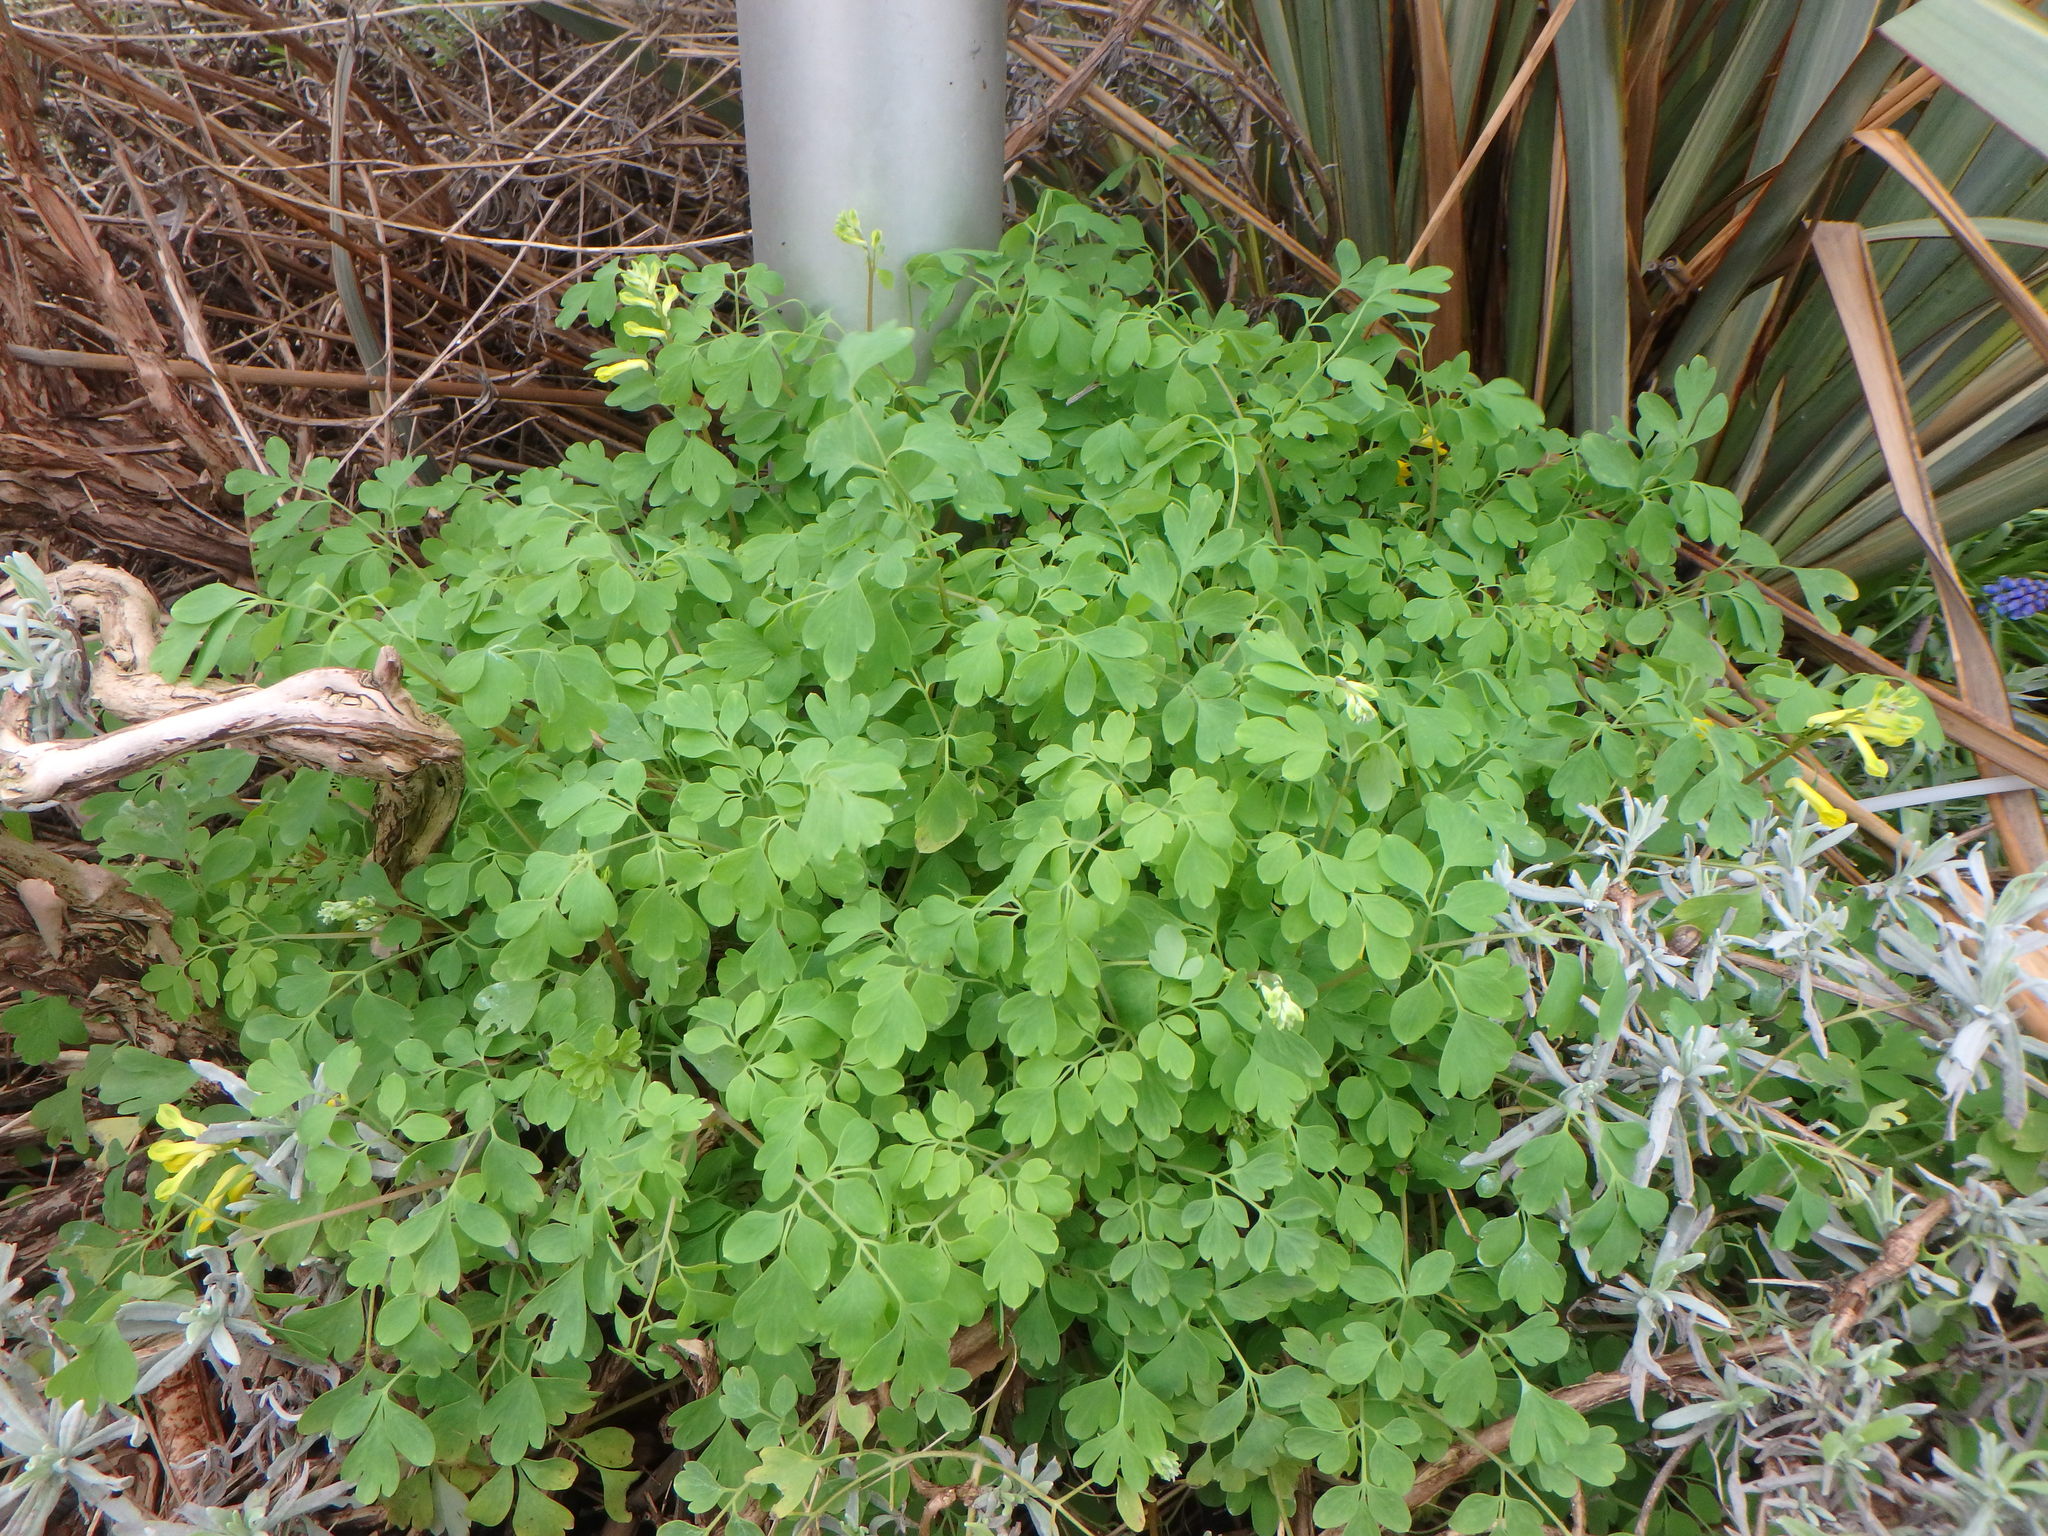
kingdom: Plantae
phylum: Tracheophyta
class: Magnoliopsida
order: Ranunculales
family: Papaveraceae
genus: Pseudofumaria
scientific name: Pseudofumaria lutea
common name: Yellow corydalis
